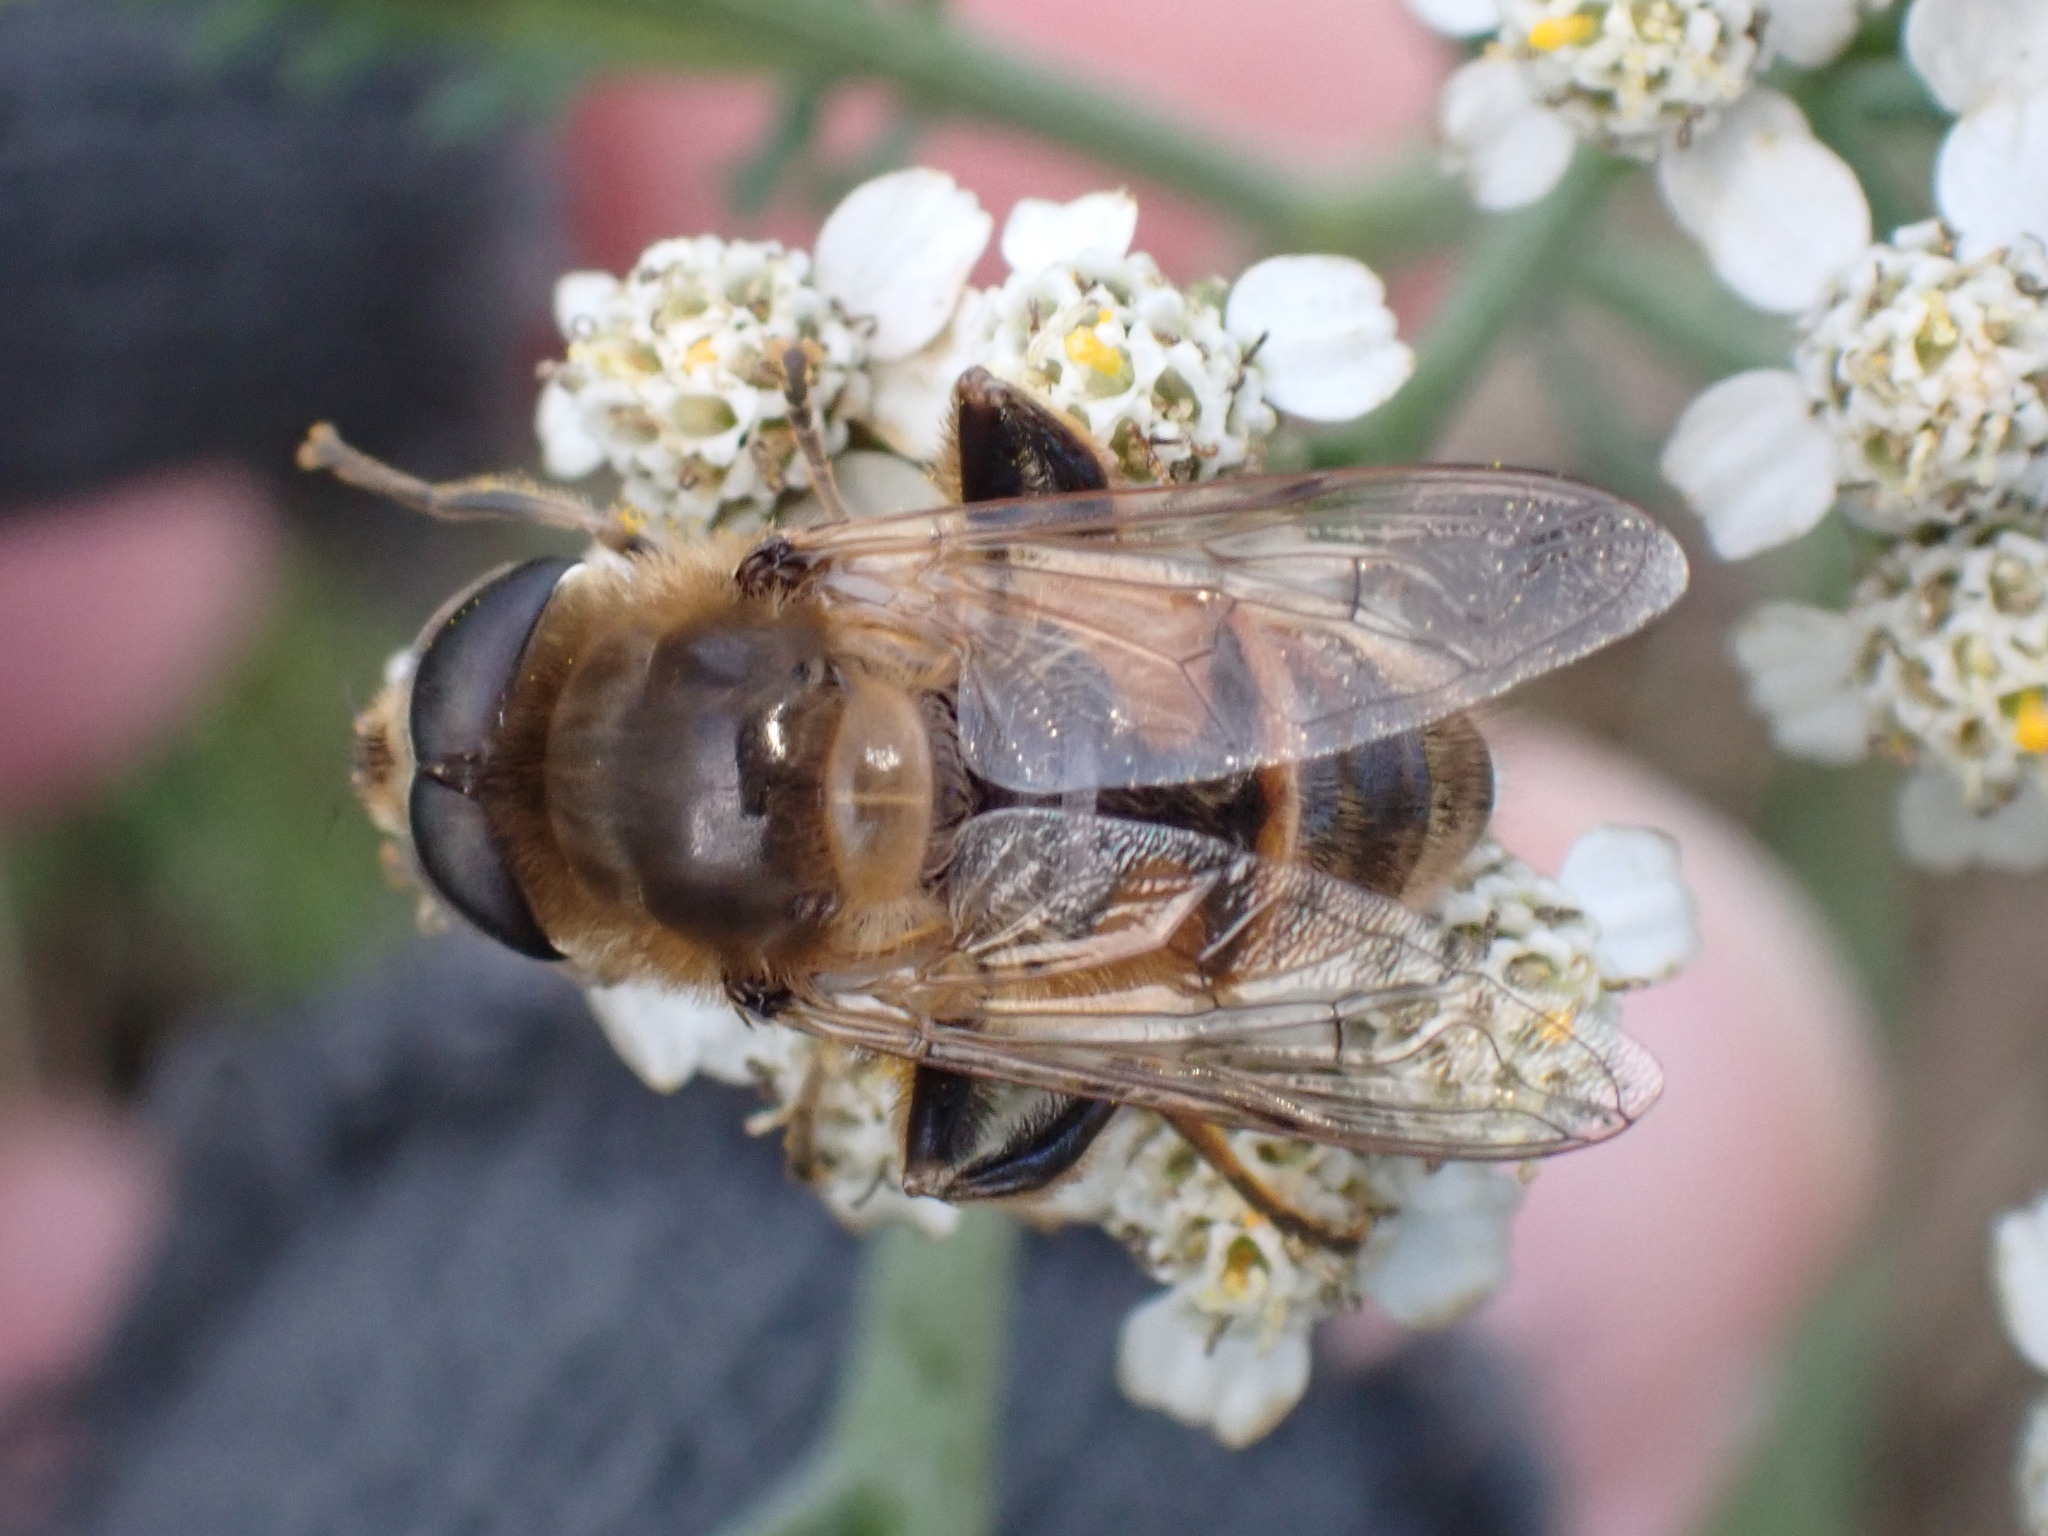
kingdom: Animalia
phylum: Arthropoda
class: Insecta
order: Diptera
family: Syrphidae
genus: Eristalis
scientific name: Eristalis tenax
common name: Drone fly
